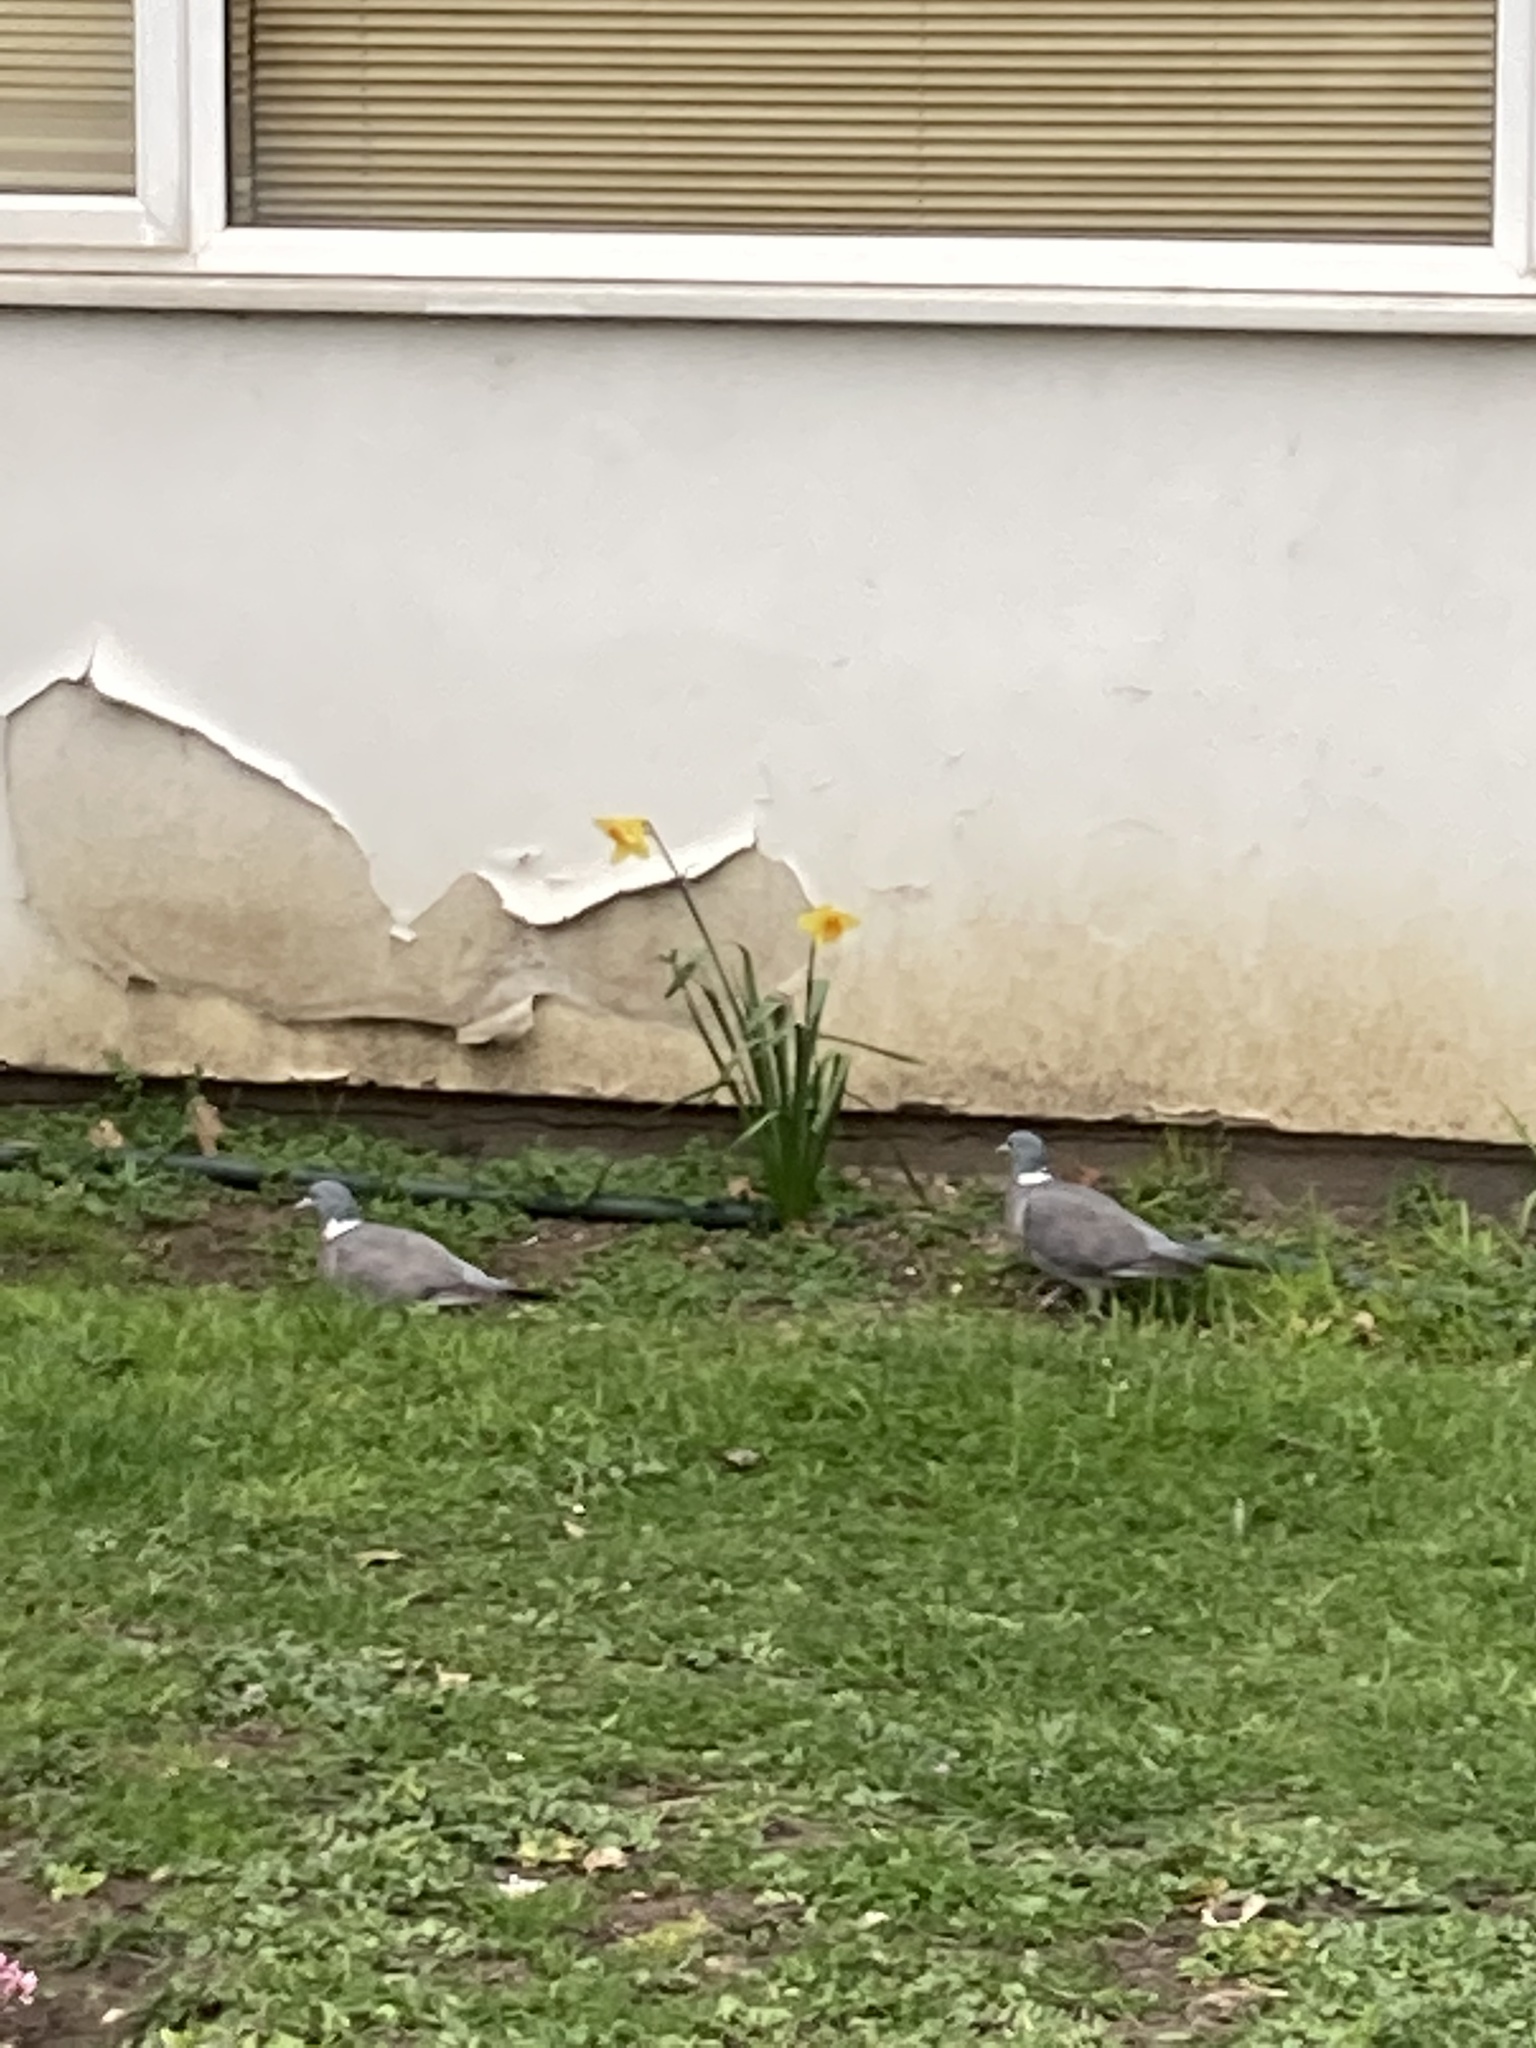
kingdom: Animalia
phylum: Chordata
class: Aves
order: Columbiformes
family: Columbidae
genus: Columba
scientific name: Columba palumbus
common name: Common wood pigeon
